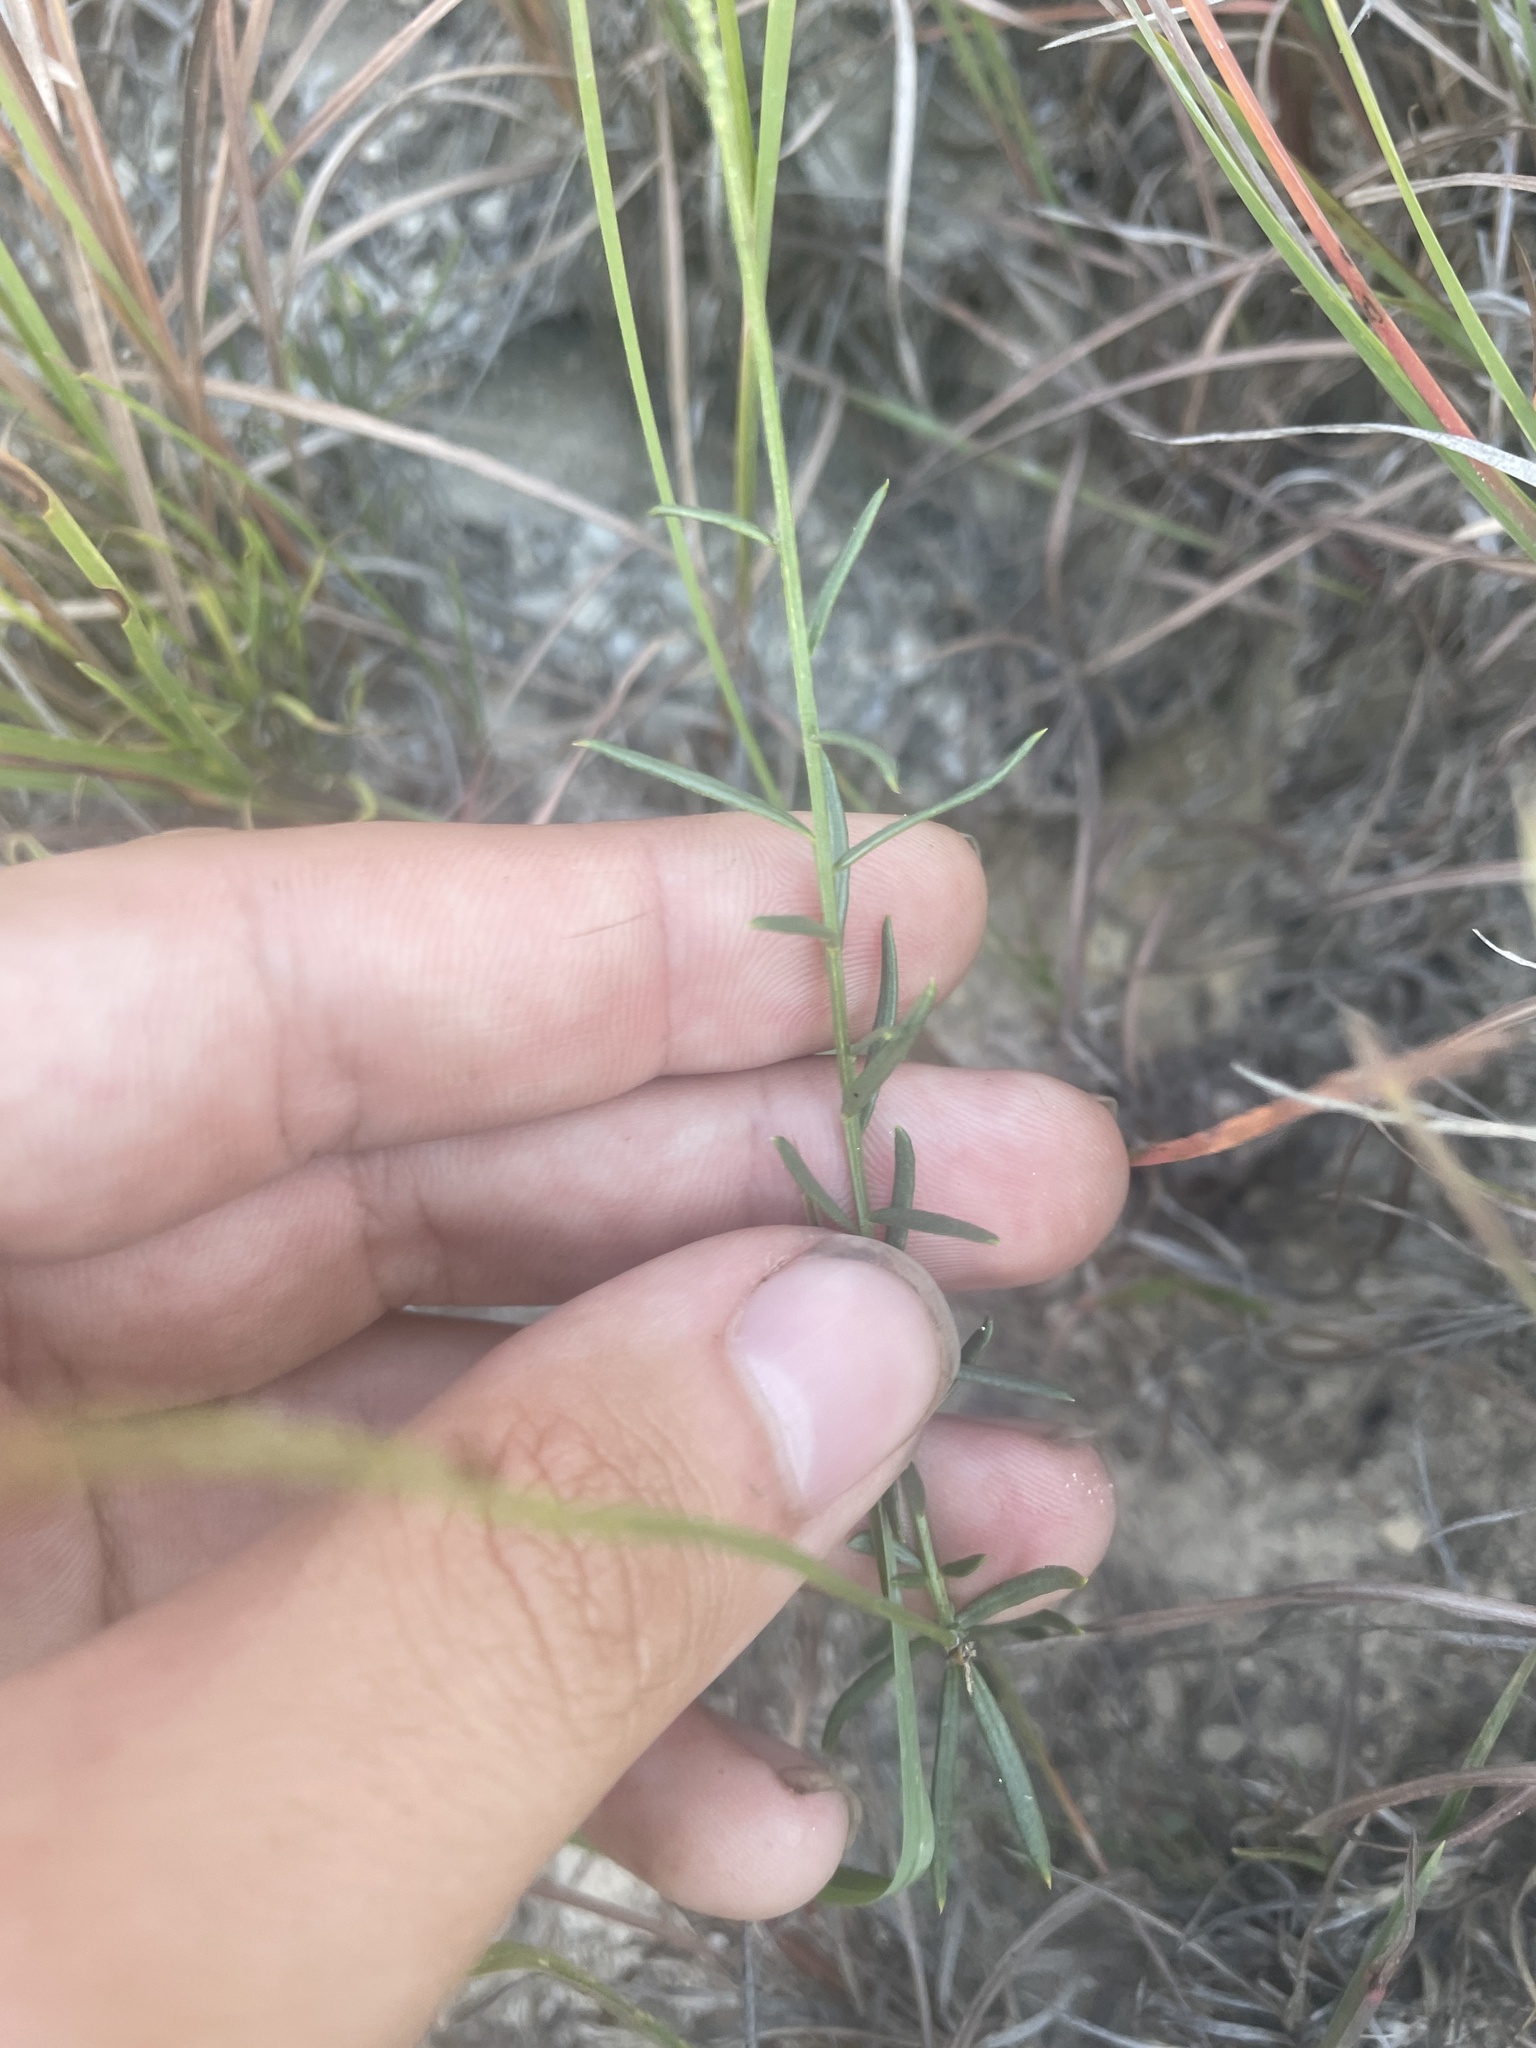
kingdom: Plantae
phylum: Tracheophyta
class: Magnoliopsida
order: Fabales
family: Polygalaceae
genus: Polygala
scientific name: Polygala alba
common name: White milkwort
